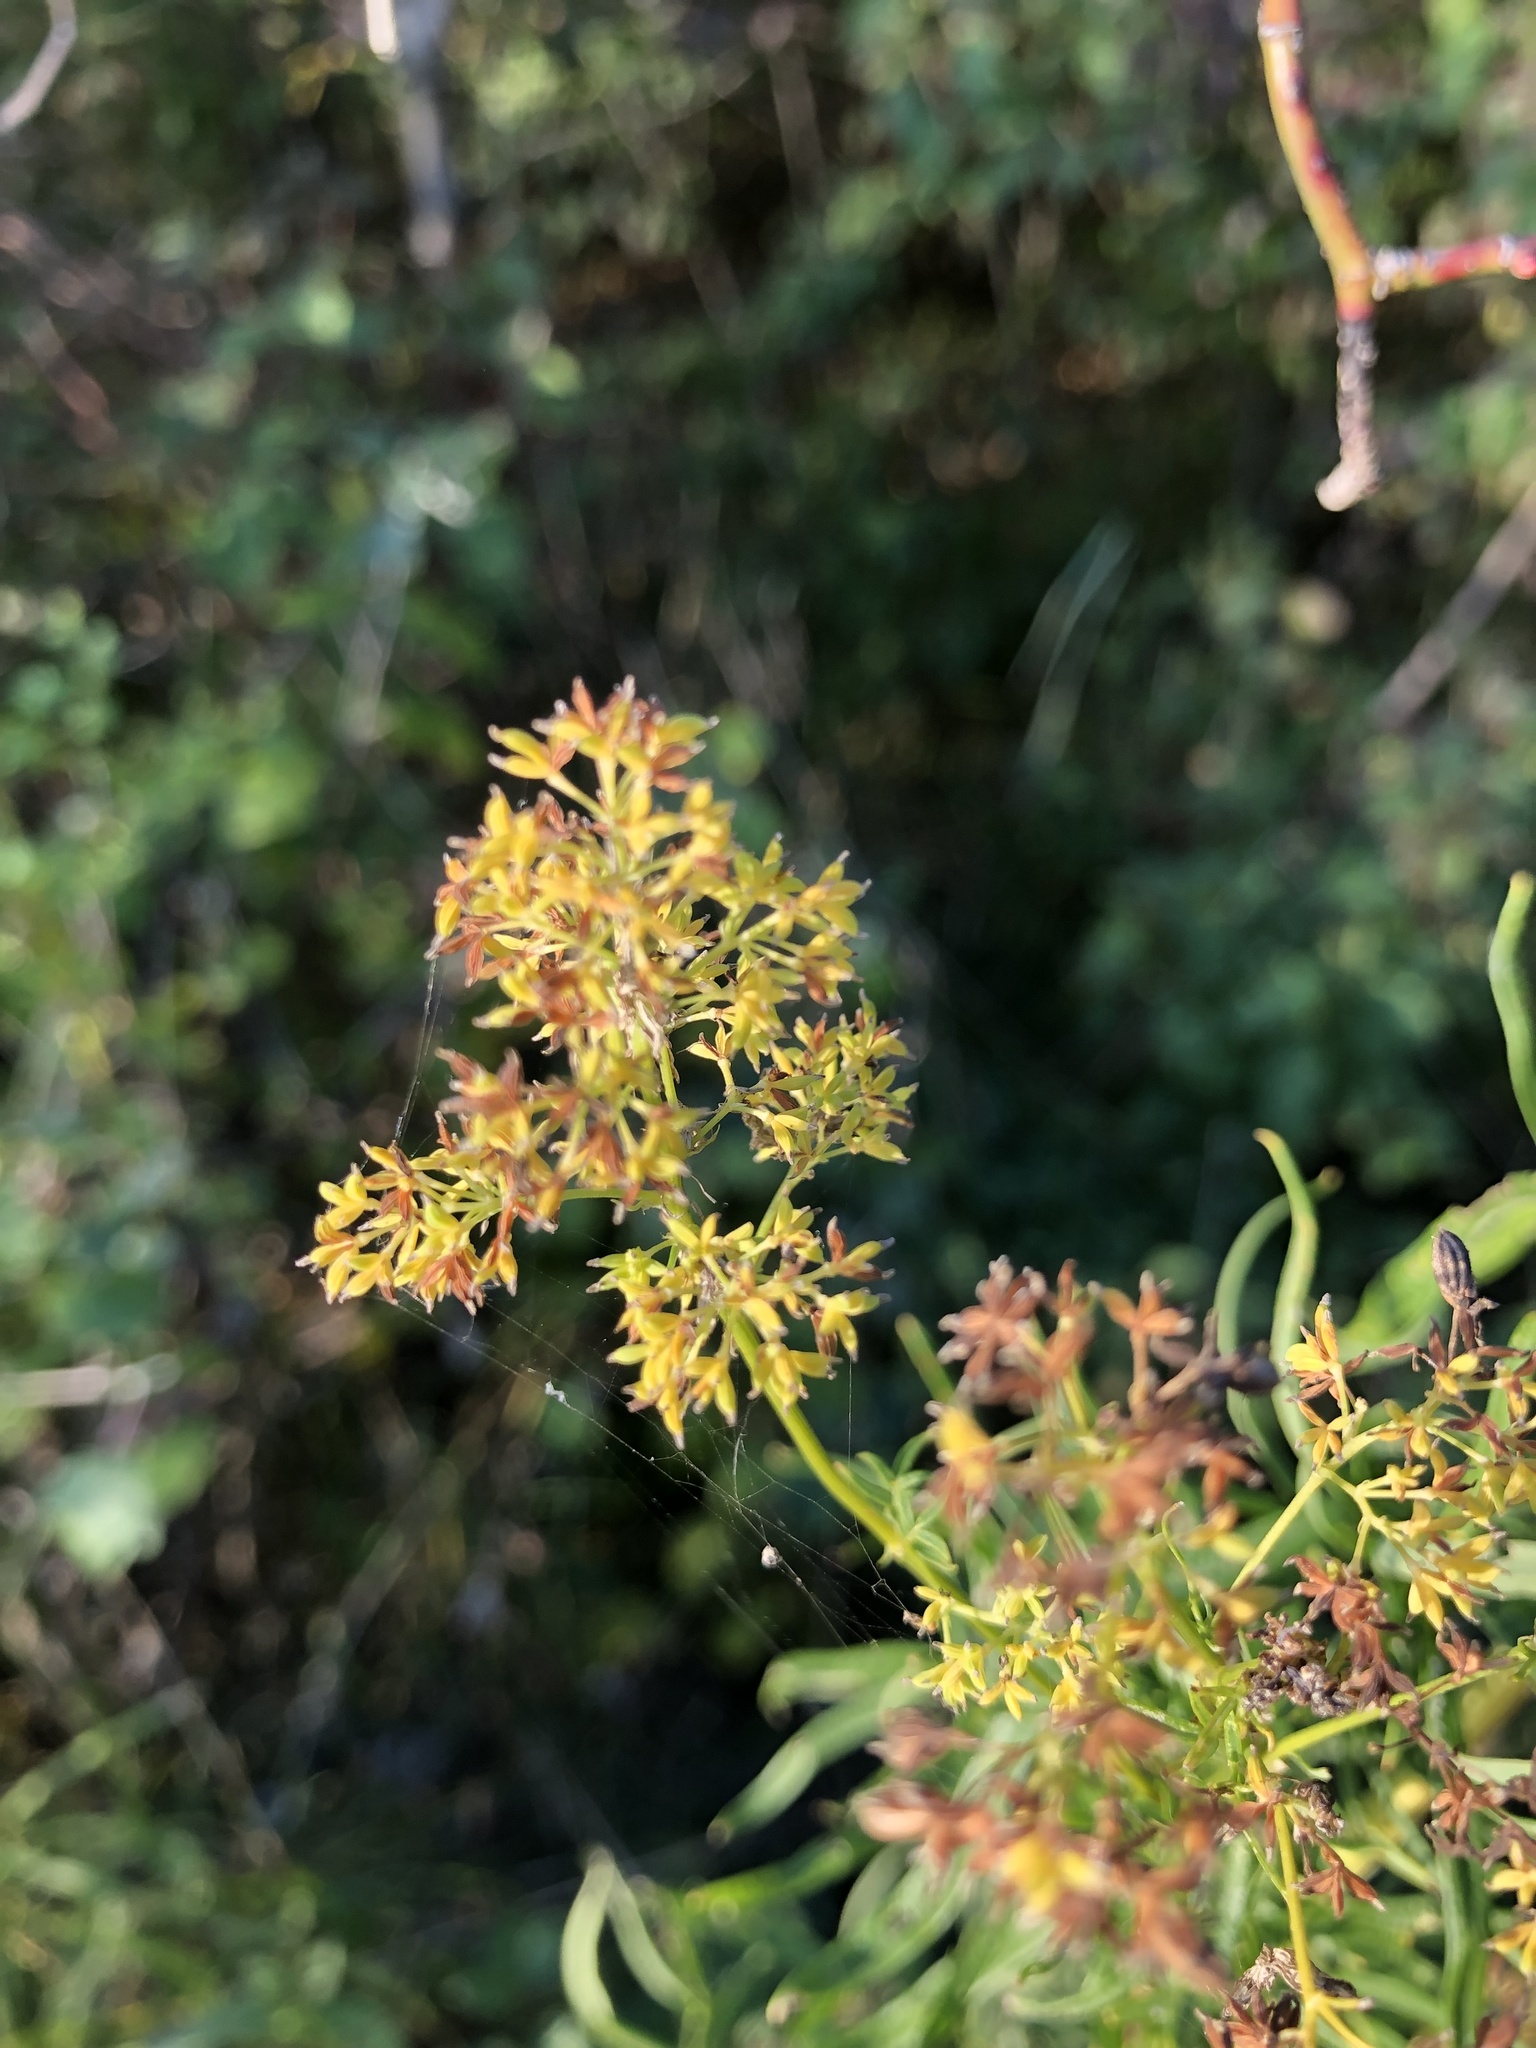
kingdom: Plantae
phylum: Tracheophyta
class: Magnoliopsida
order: Ranunculales
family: Ranunculaceae
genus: Thalictrum
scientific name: Thalictrum lucidum
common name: Shining meadow-rue
